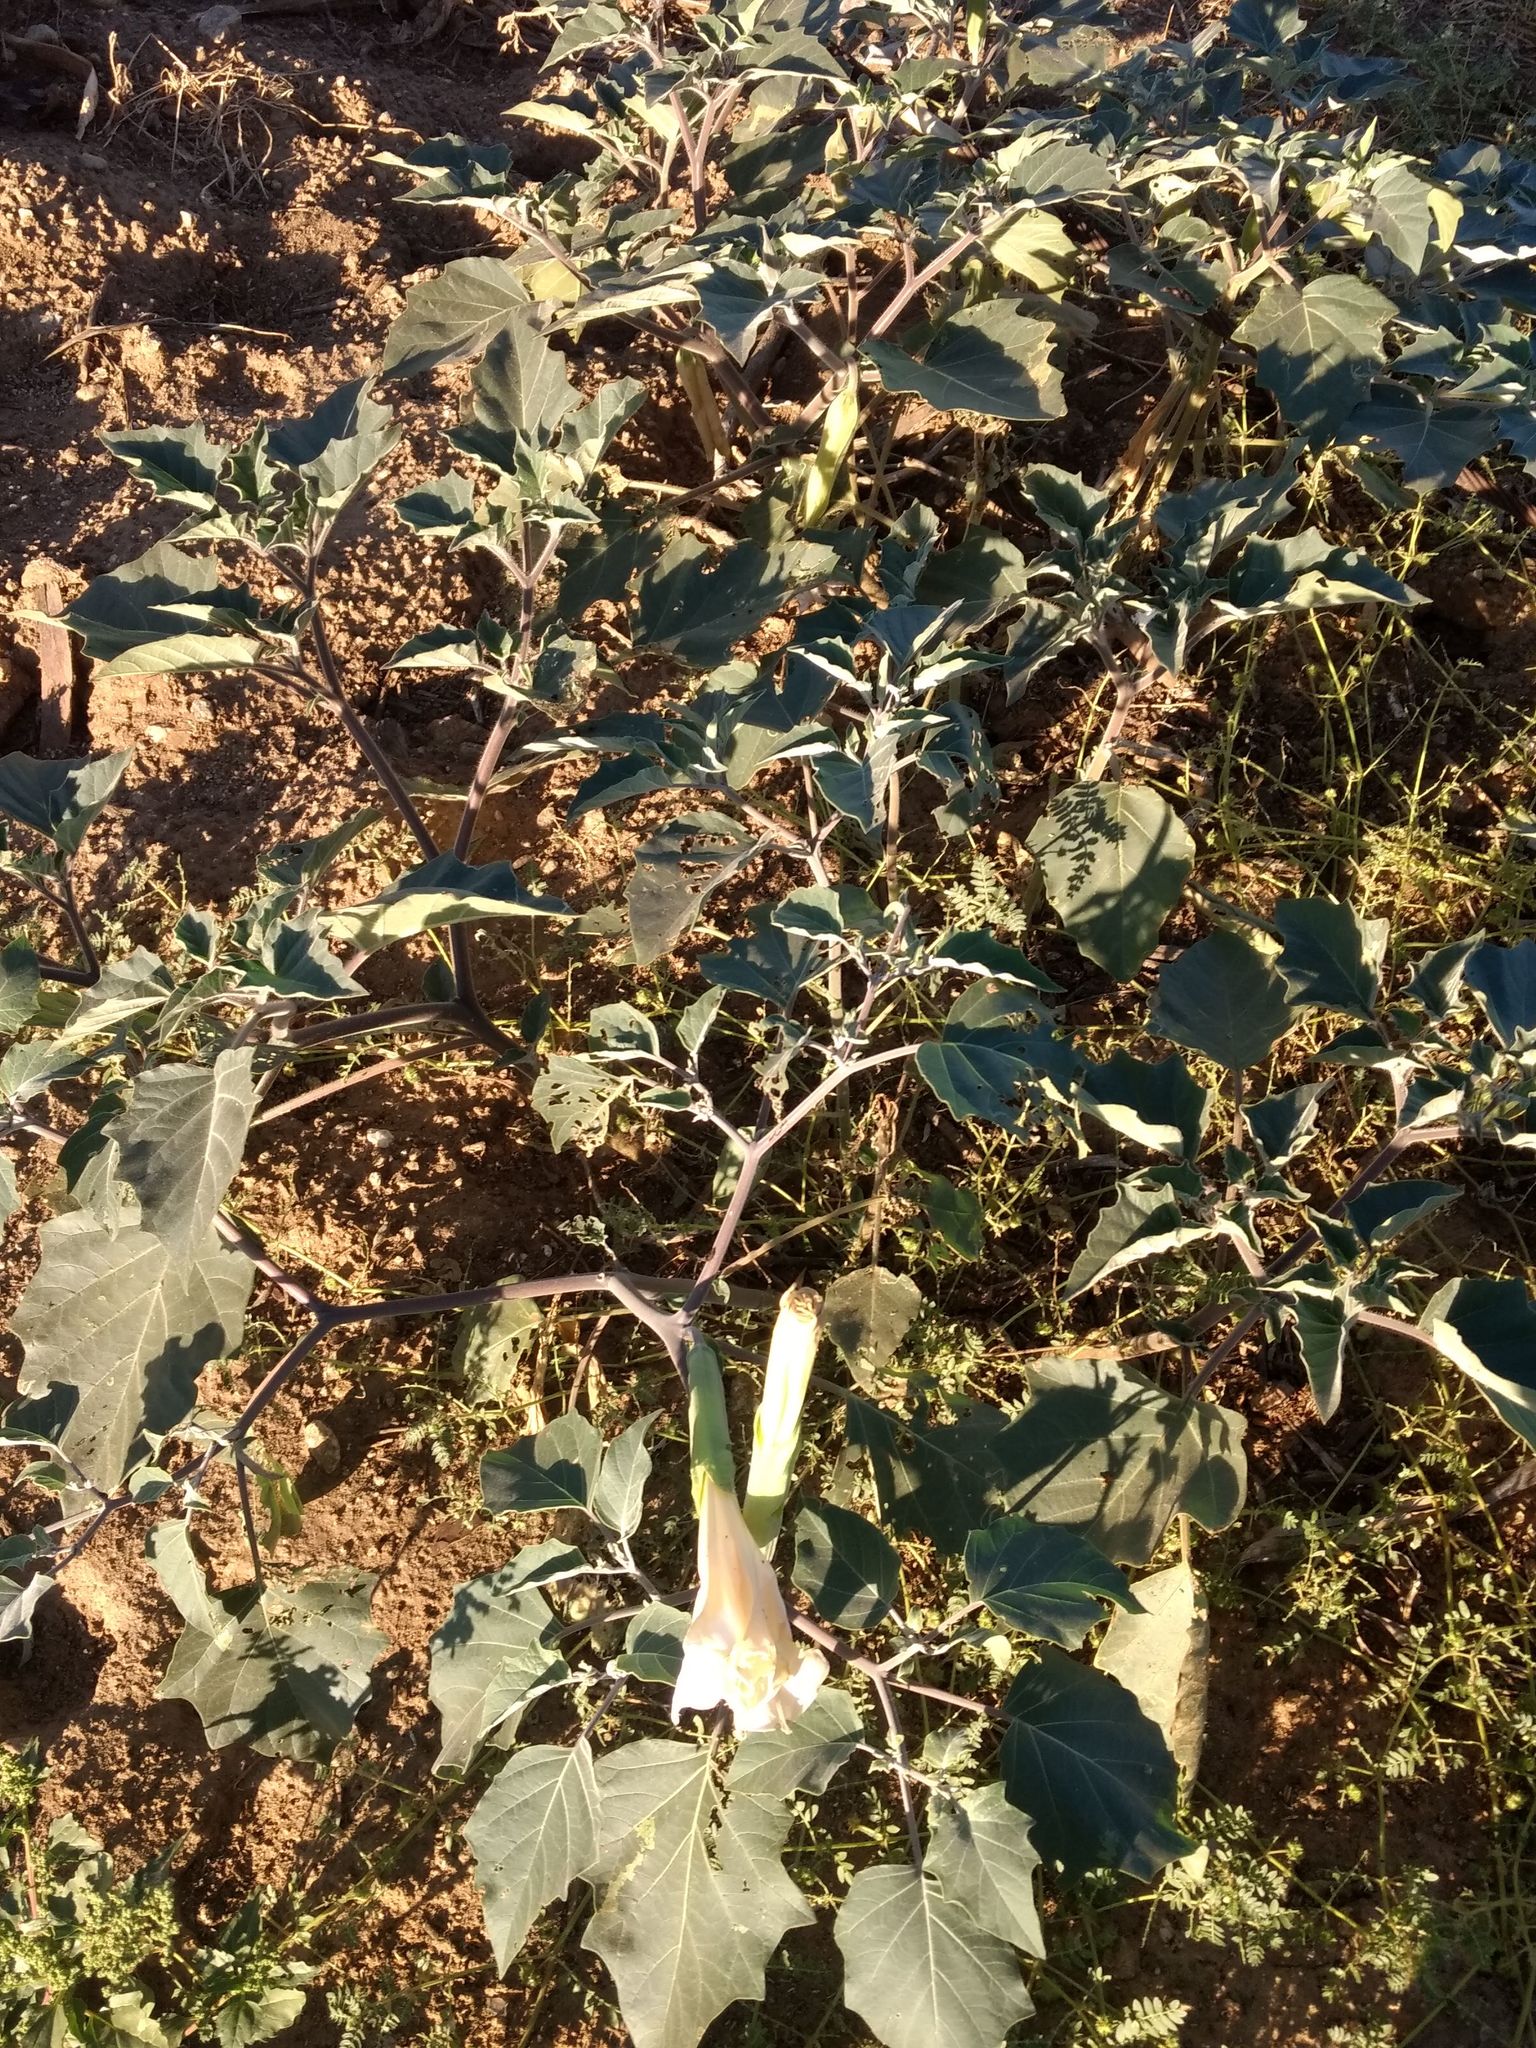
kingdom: Plantae
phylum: Tracheophyta
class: Magnoliopsida
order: Solanales
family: Solanaceae
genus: Datura
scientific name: Datura wrightii
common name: Sacred thorn-apple
